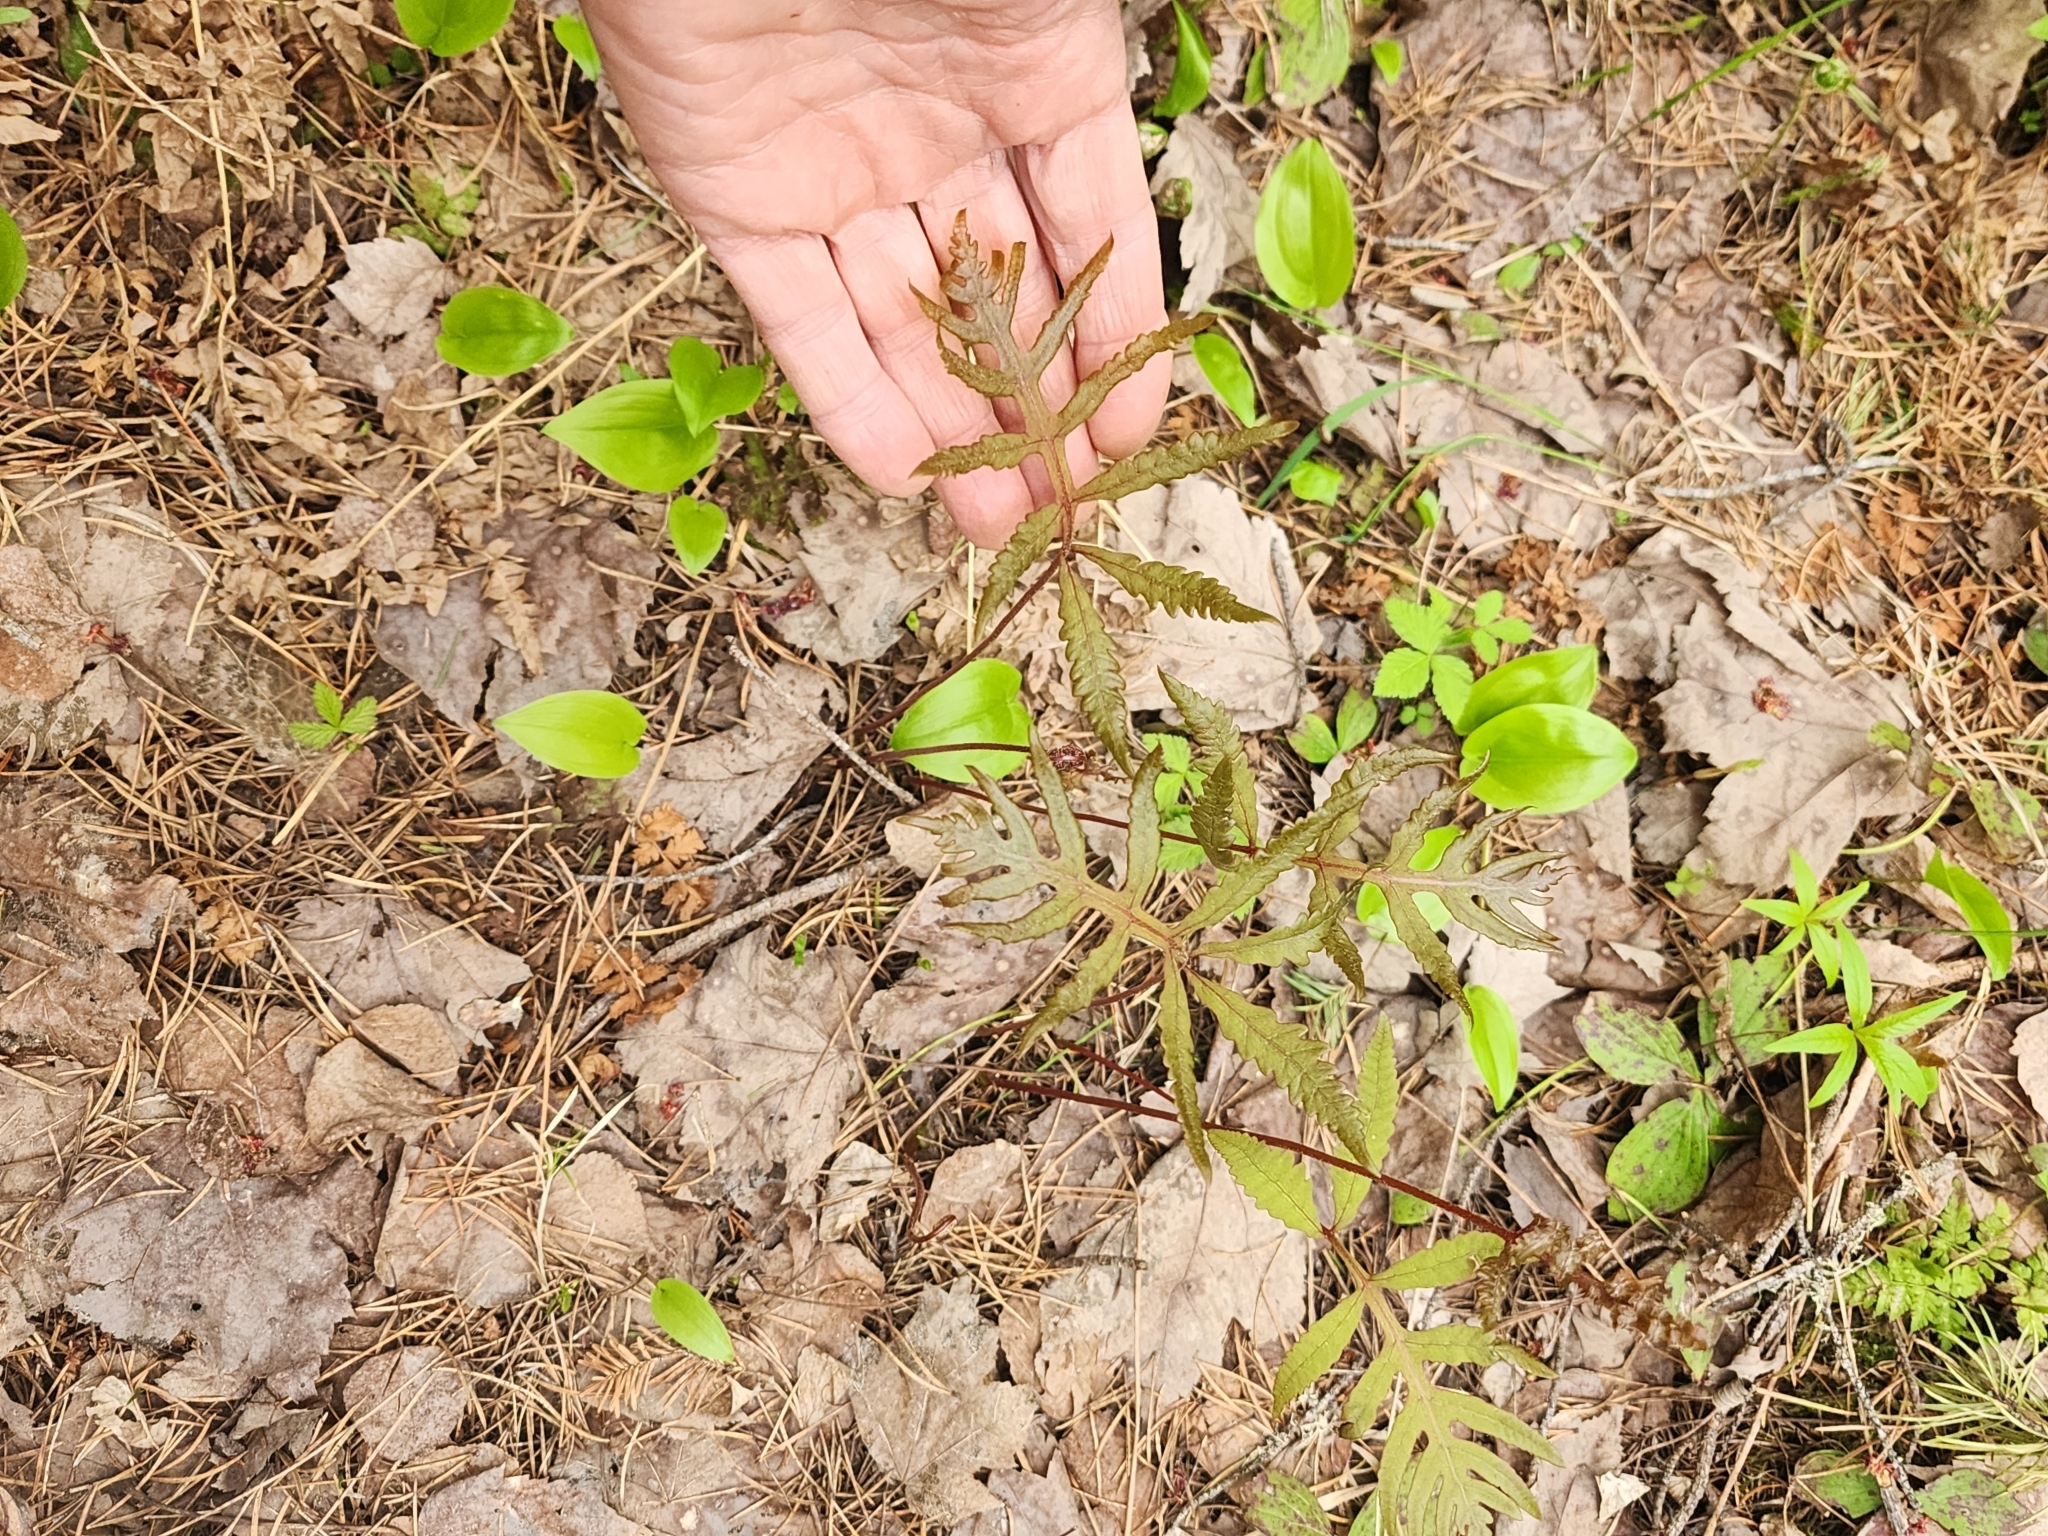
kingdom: Plantae
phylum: Tracheophyta
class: Polypodiopsida
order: Polypodiales
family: Onocleaceae
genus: Onoclea
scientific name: Onoclea sensibilis
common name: Sensitive fern
